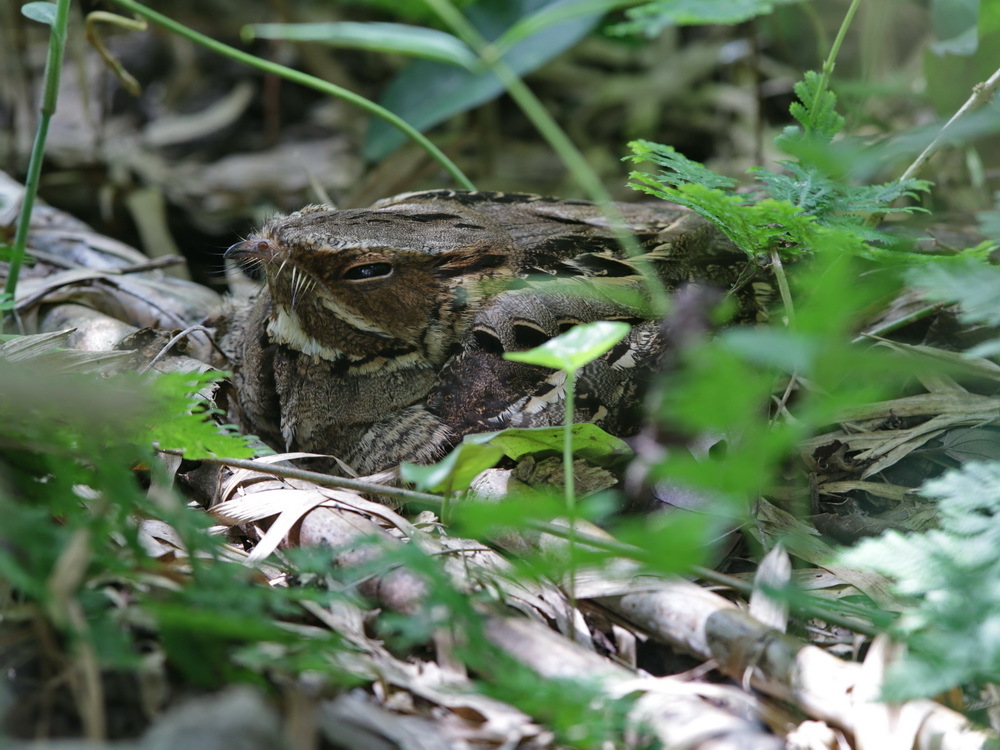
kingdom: Animalia
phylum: Chordata
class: Aves
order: Caprimulgiformes
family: Caprimulgidae
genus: Caprimulgus
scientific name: Caprimulgus macrurus
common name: Large-tailed nightjar
